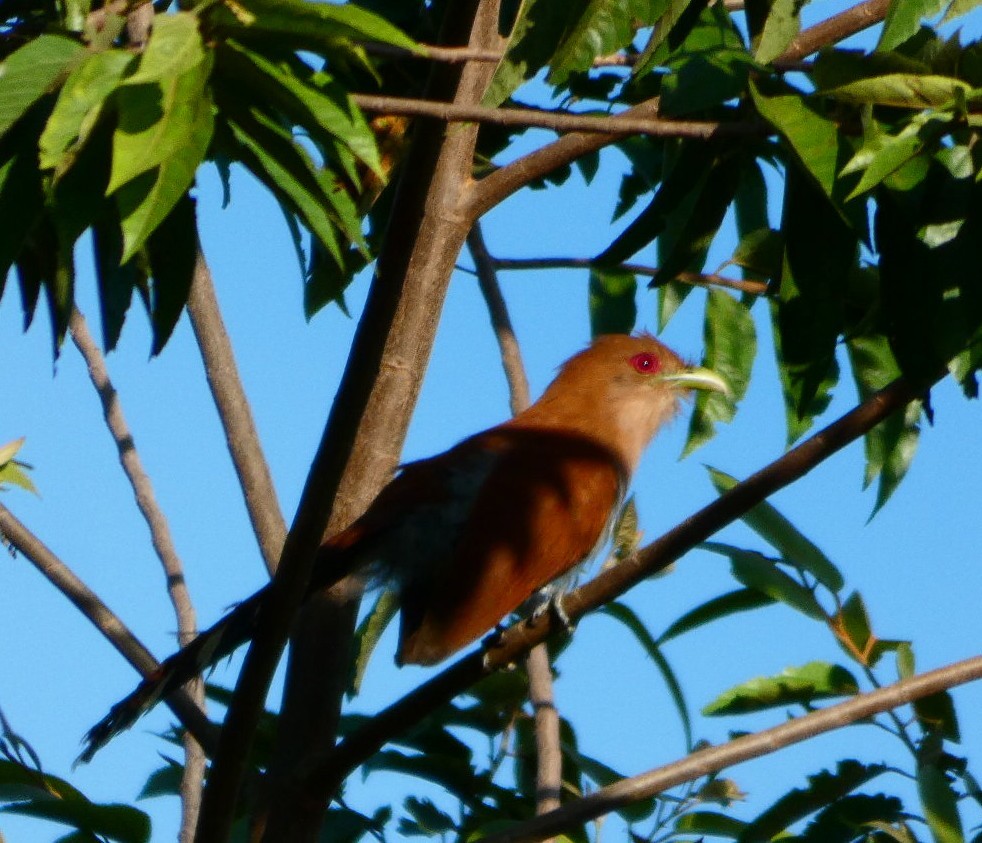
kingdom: Animalia
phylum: Chordata
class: Aves
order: Cuculiformes
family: Cuculidae
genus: Piaya
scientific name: Piaya cayana
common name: Squirrel cuckoo
